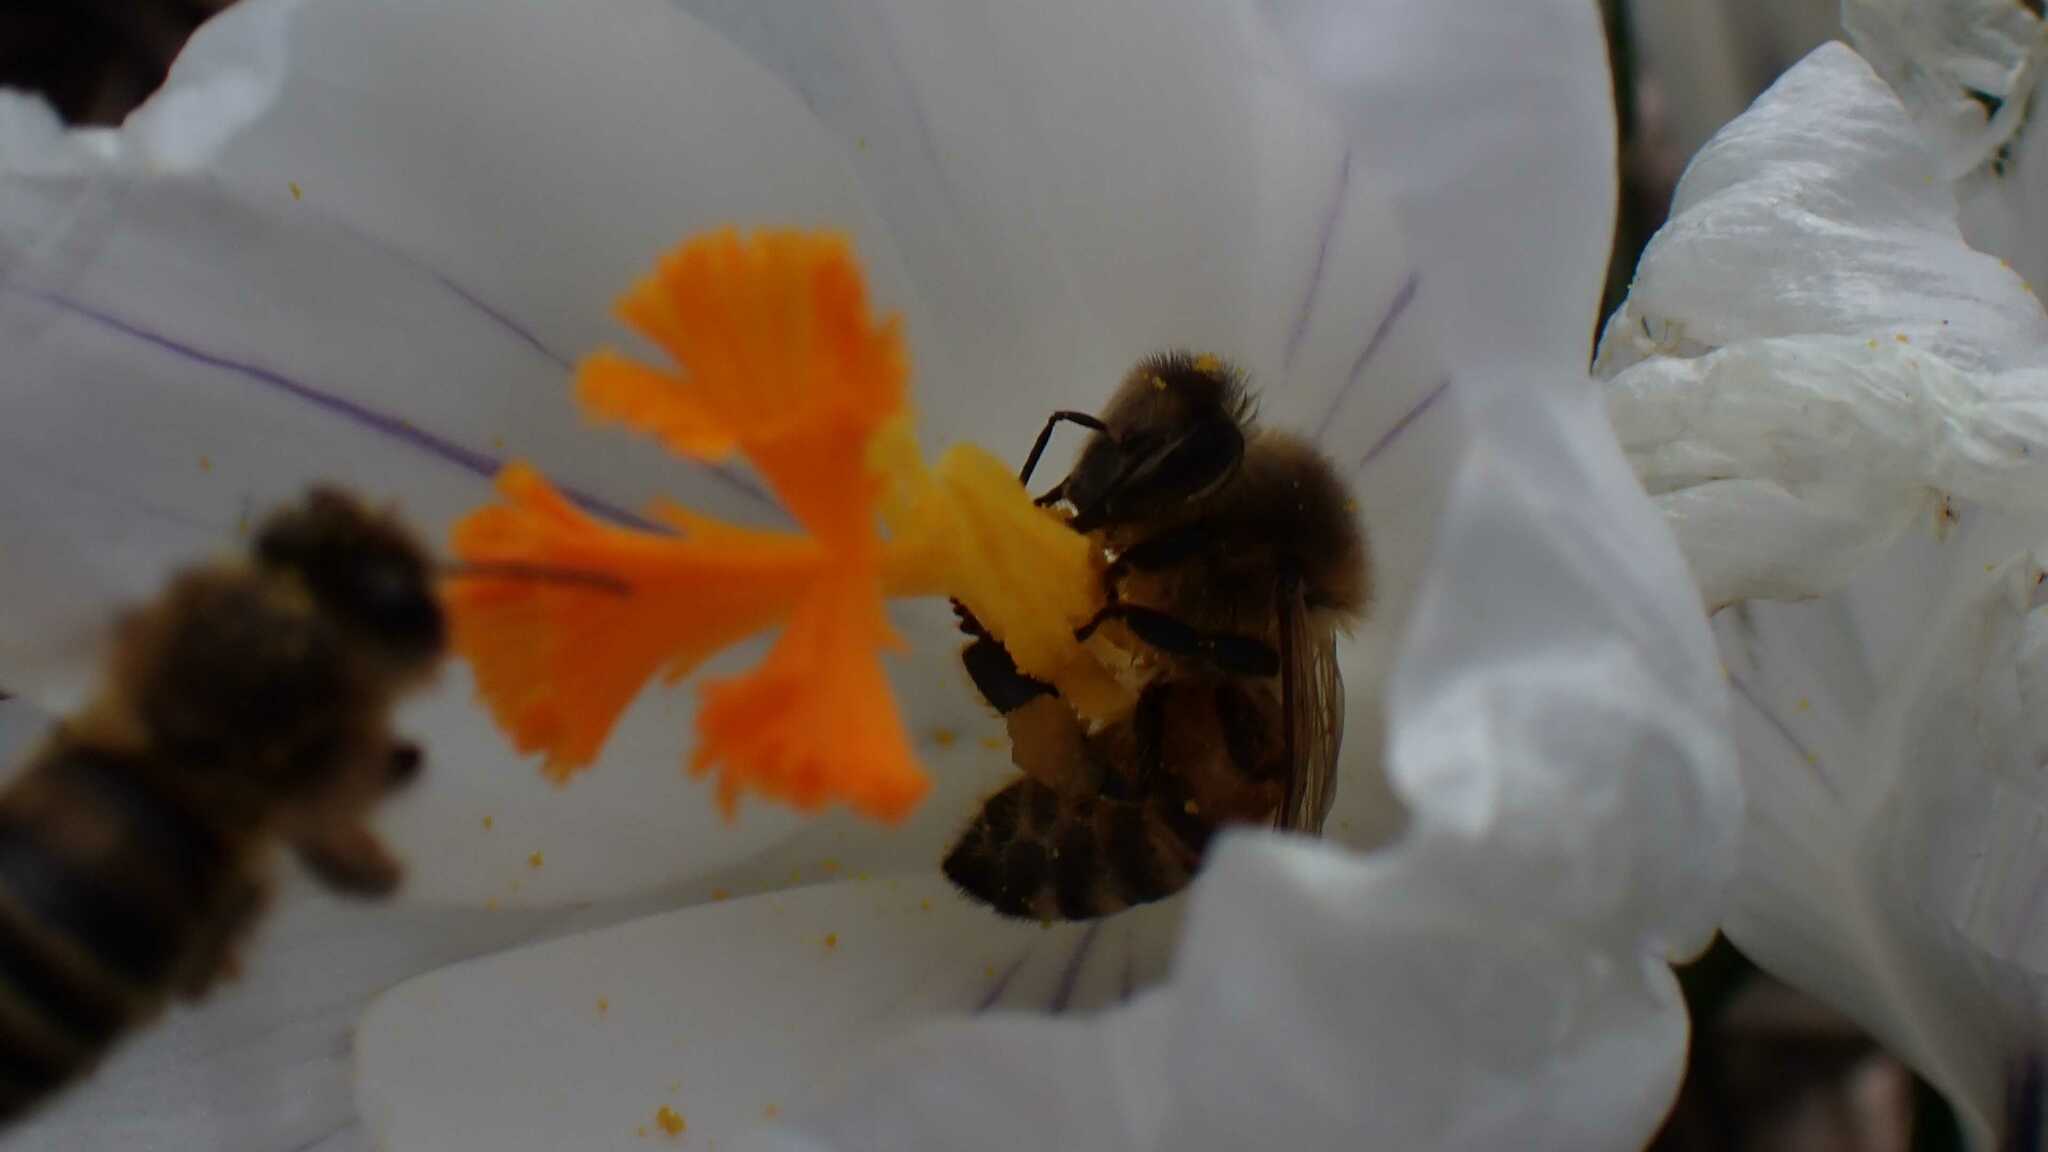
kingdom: Animalia
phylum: Arthropoda
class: Insecta
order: Hymenoptera
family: Apidae
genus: Apis
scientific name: Apis mellifera
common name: Honey bee
